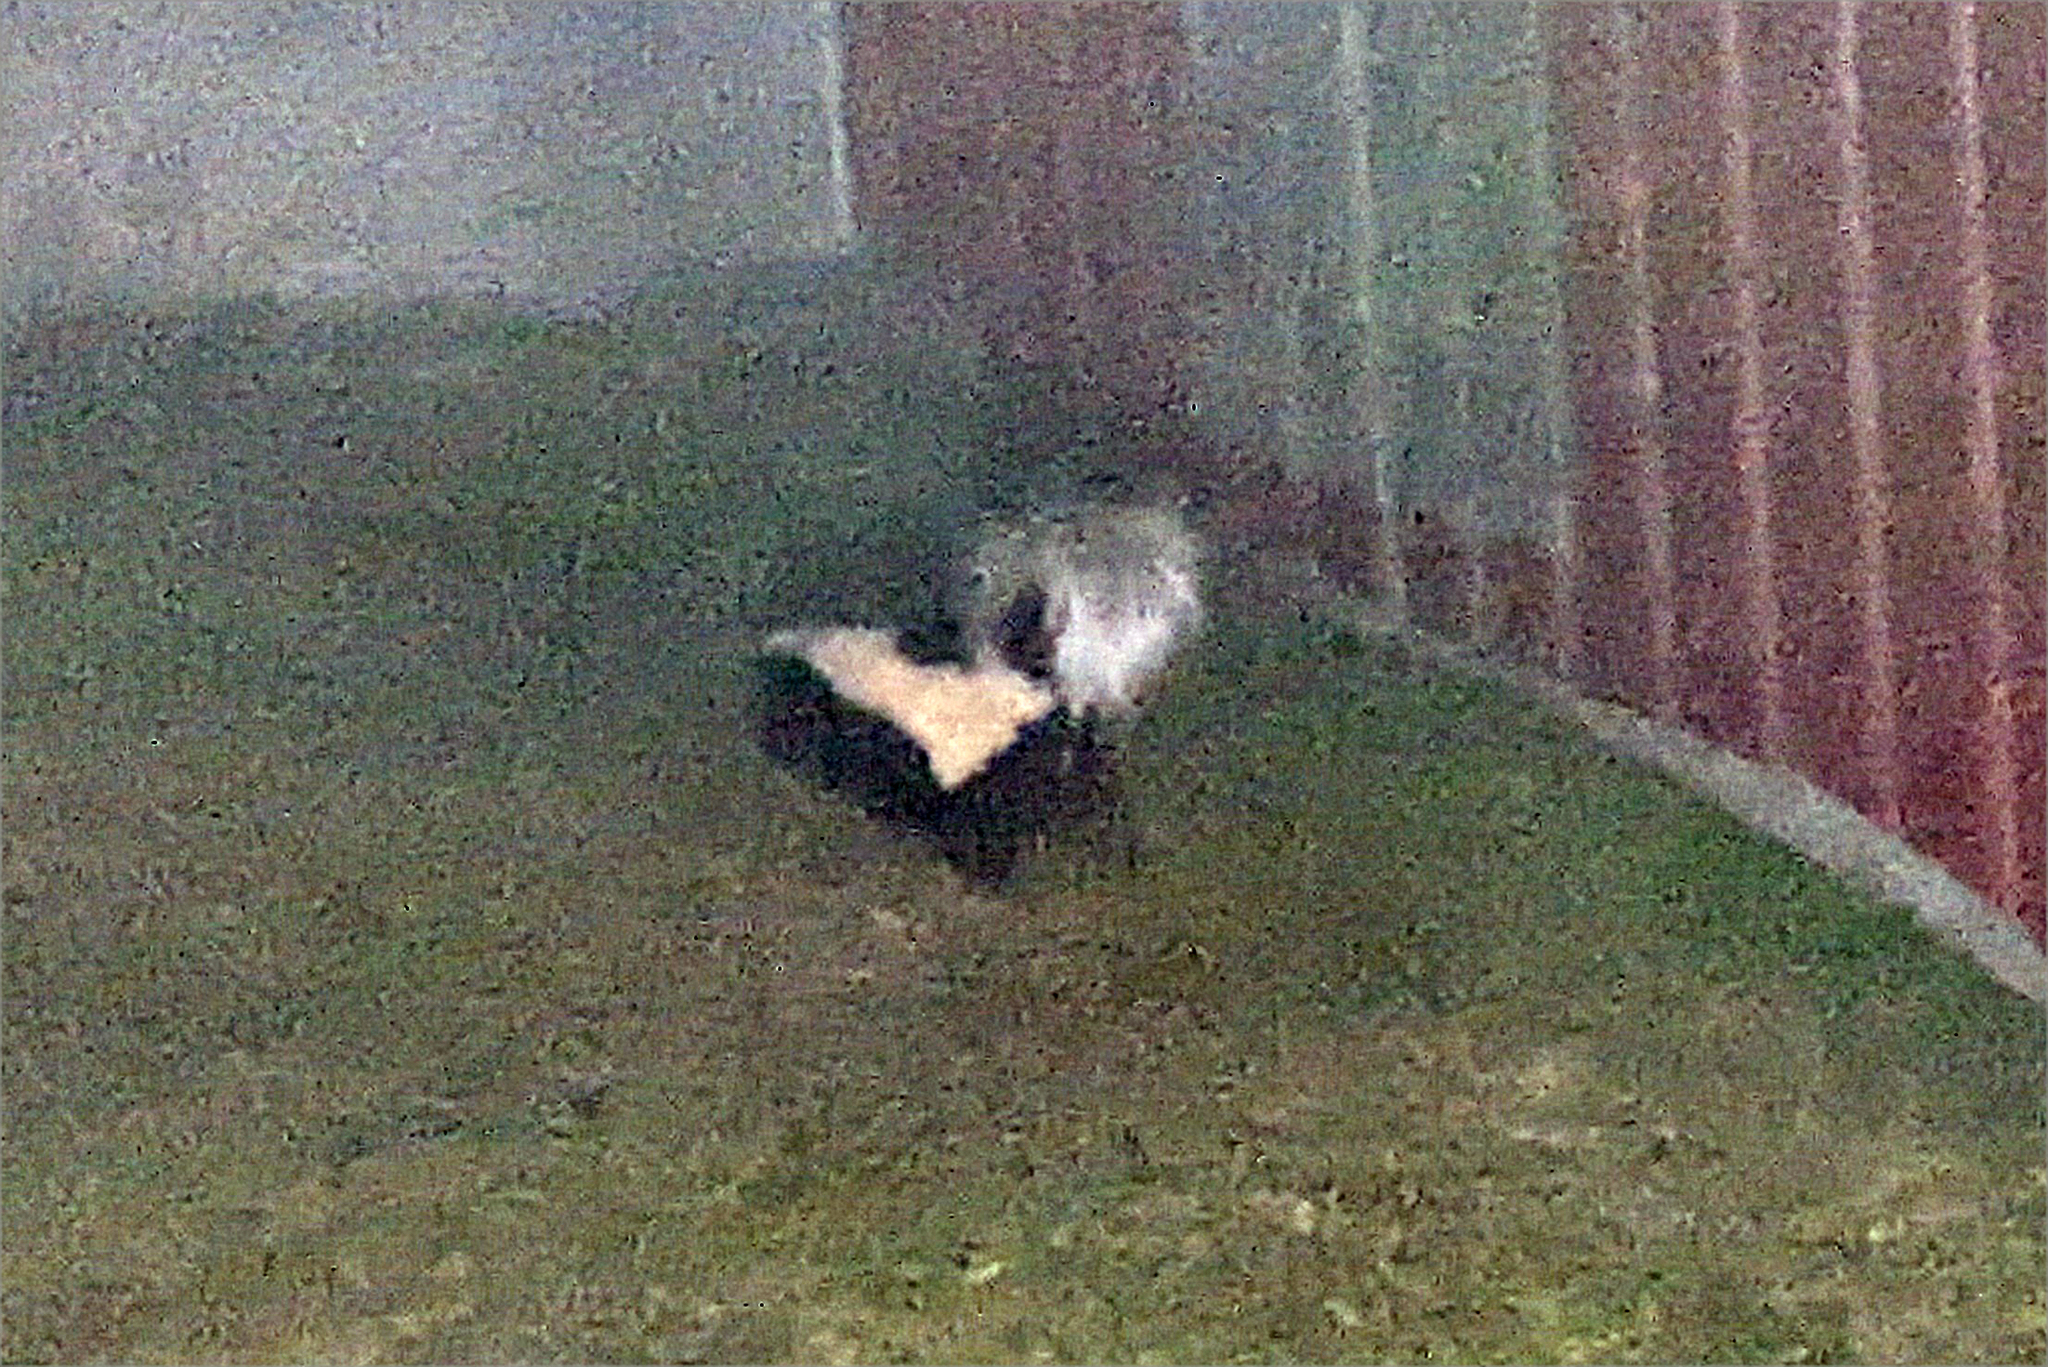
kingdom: Animalia
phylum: Chordata
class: Mammalia
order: Carnivora
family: Mephitidae
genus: Mephitis
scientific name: Mephitis mephitis
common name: Striped skunk
